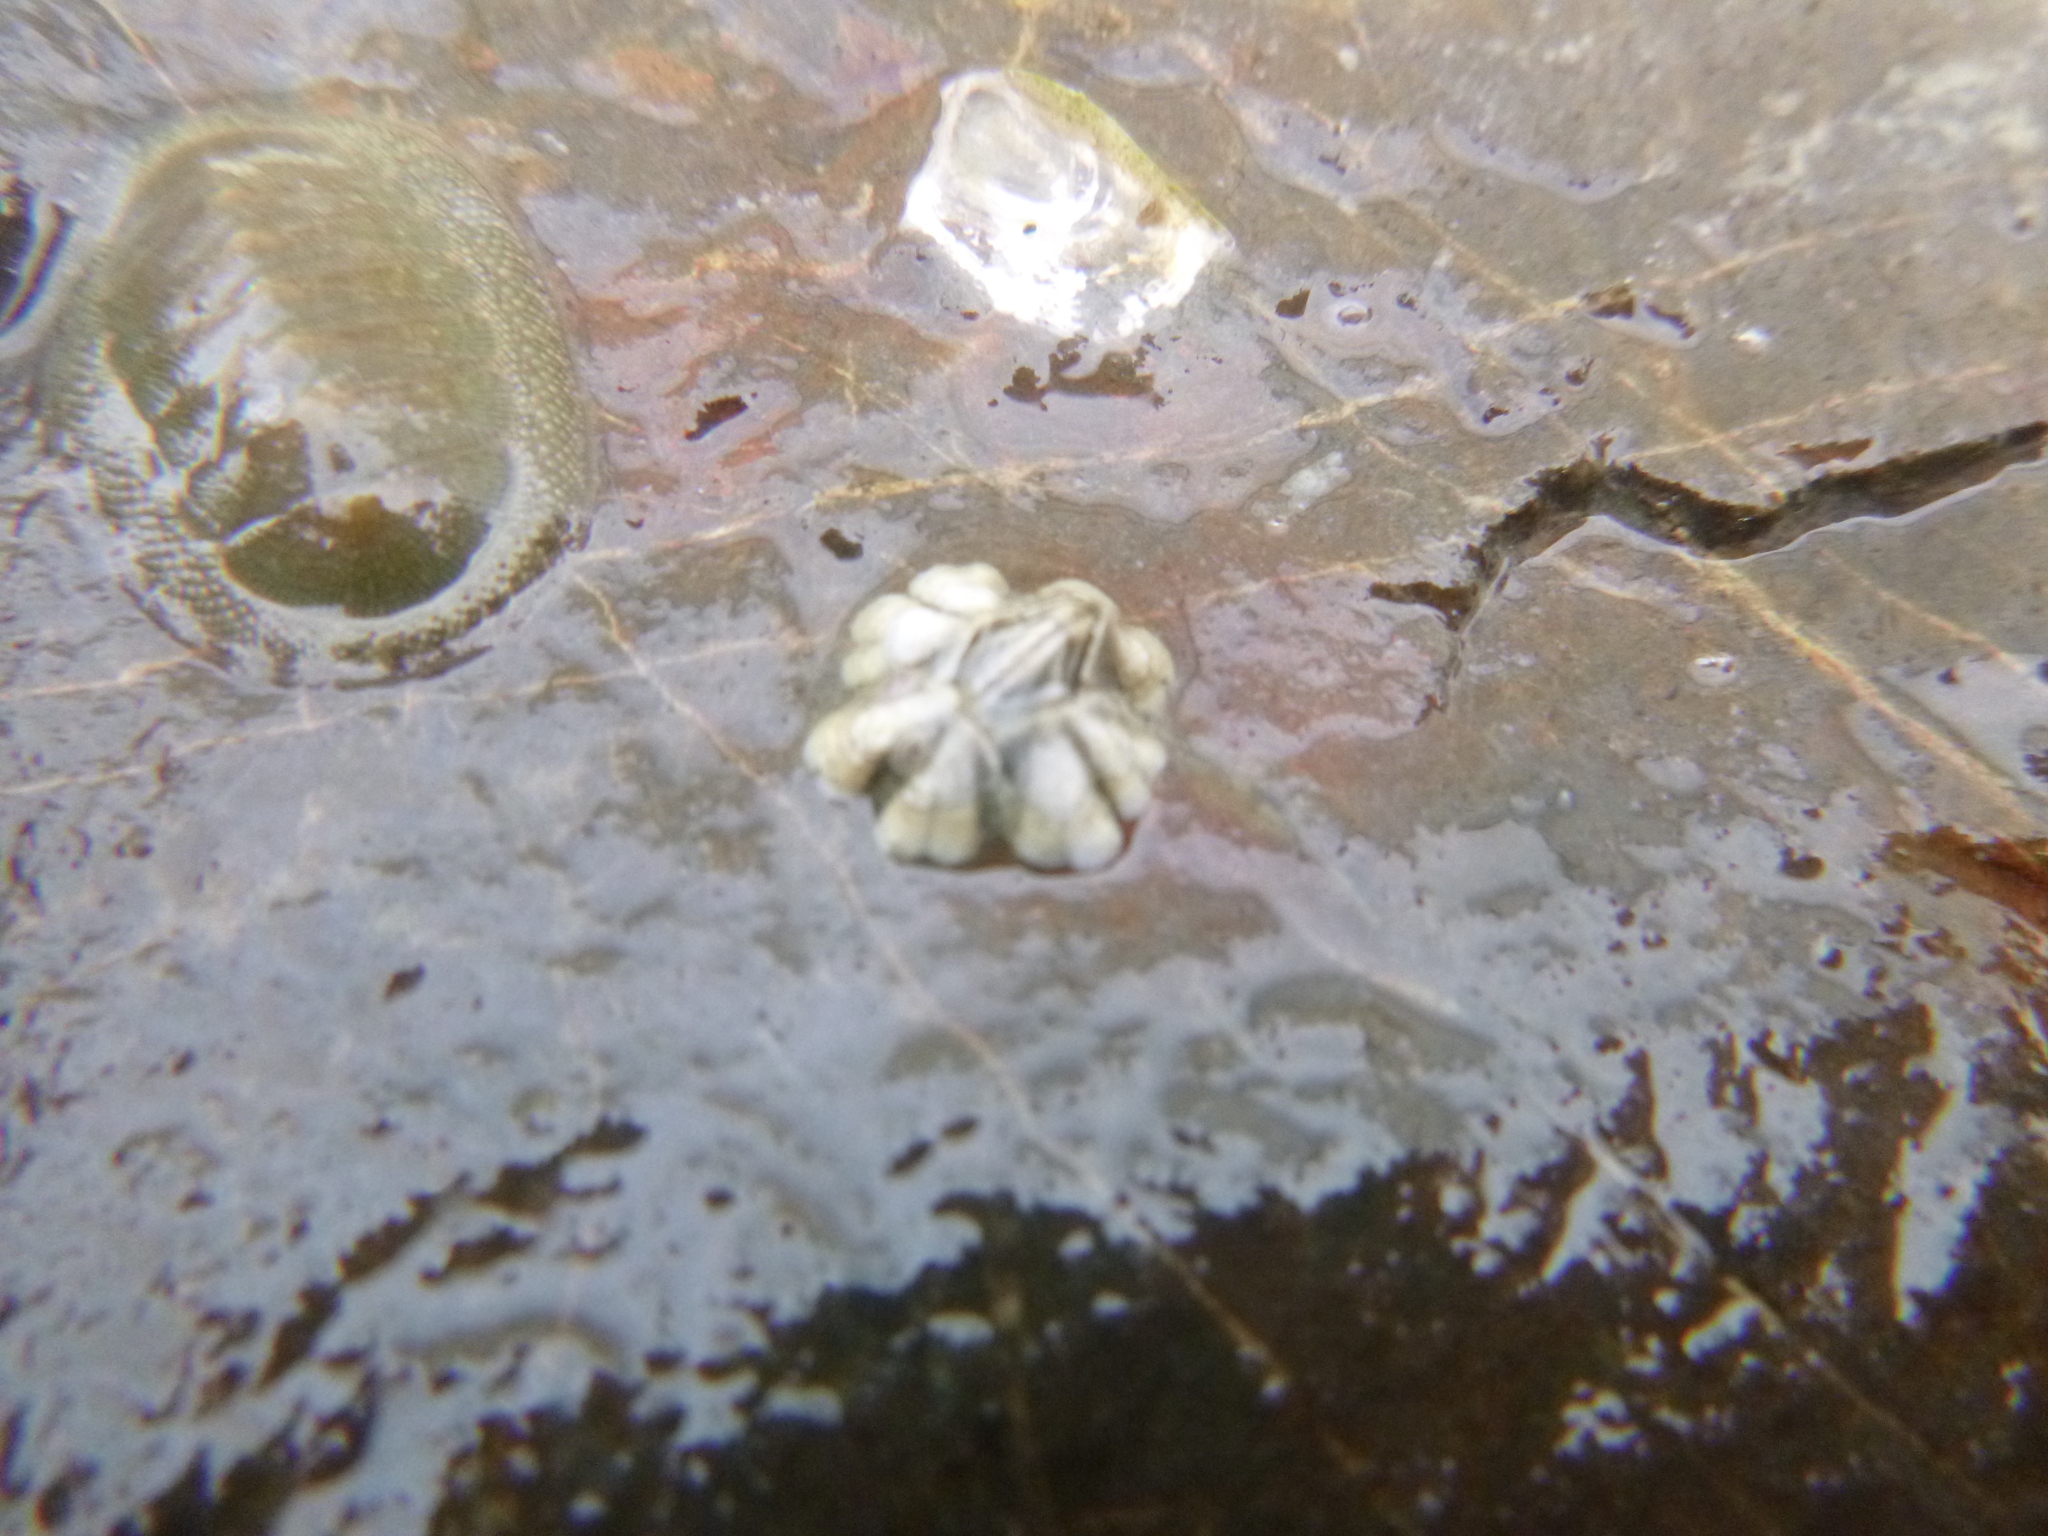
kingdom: Animalia
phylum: Arthropoda
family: Elminiidae
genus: Austrominius
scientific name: Austrominius modestus
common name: Australasian barnacle
